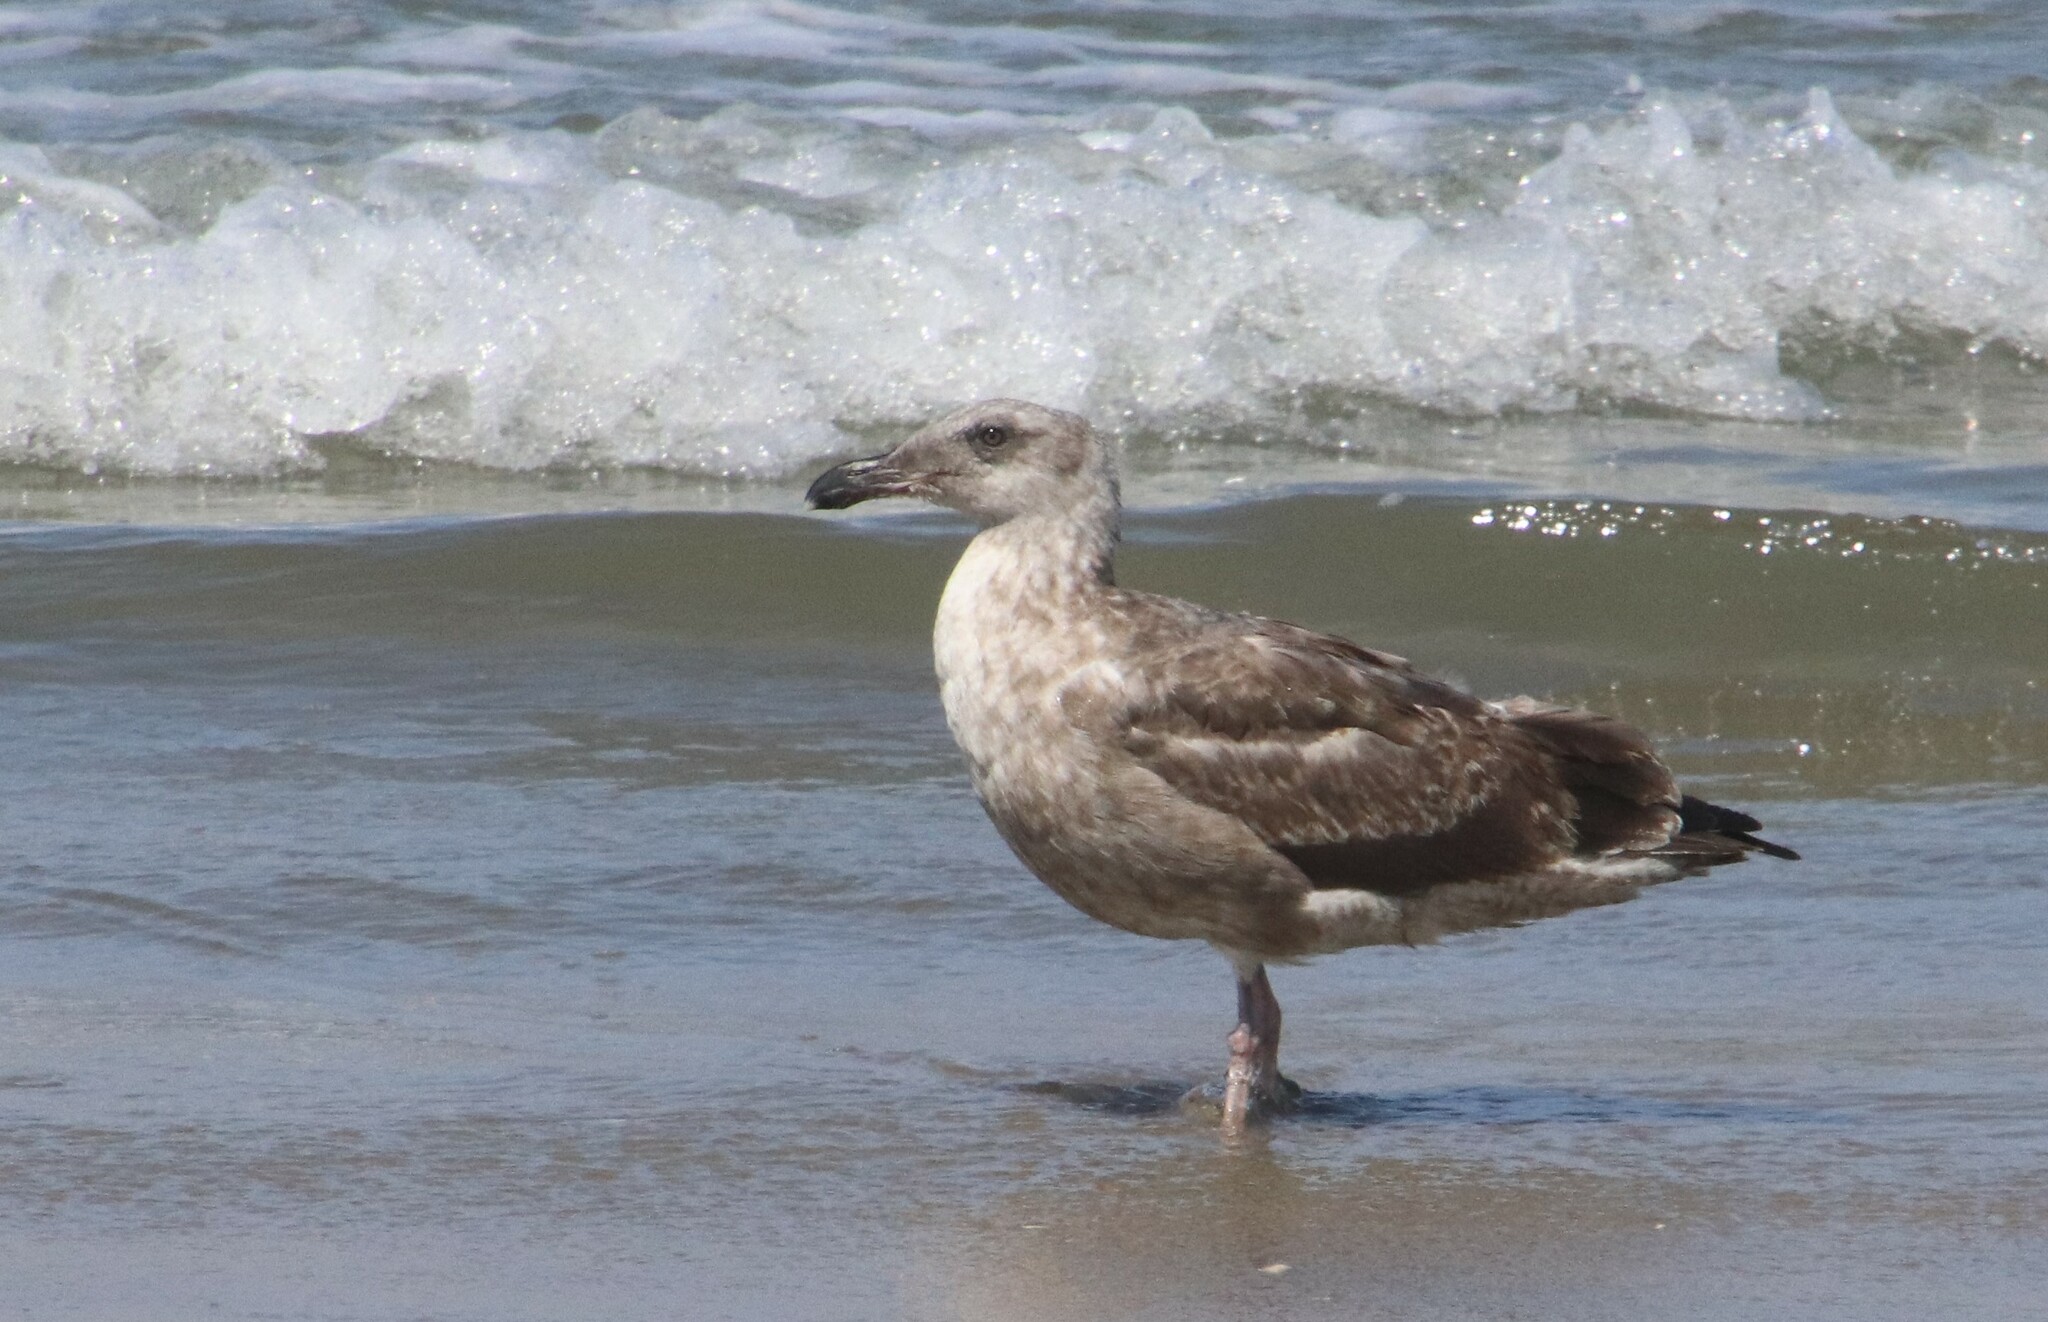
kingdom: Animalia
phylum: Chordata
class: Aves
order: Charadriiformes
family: Laridae
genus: Larus
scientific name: Larus occidentalis
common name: Western gull
